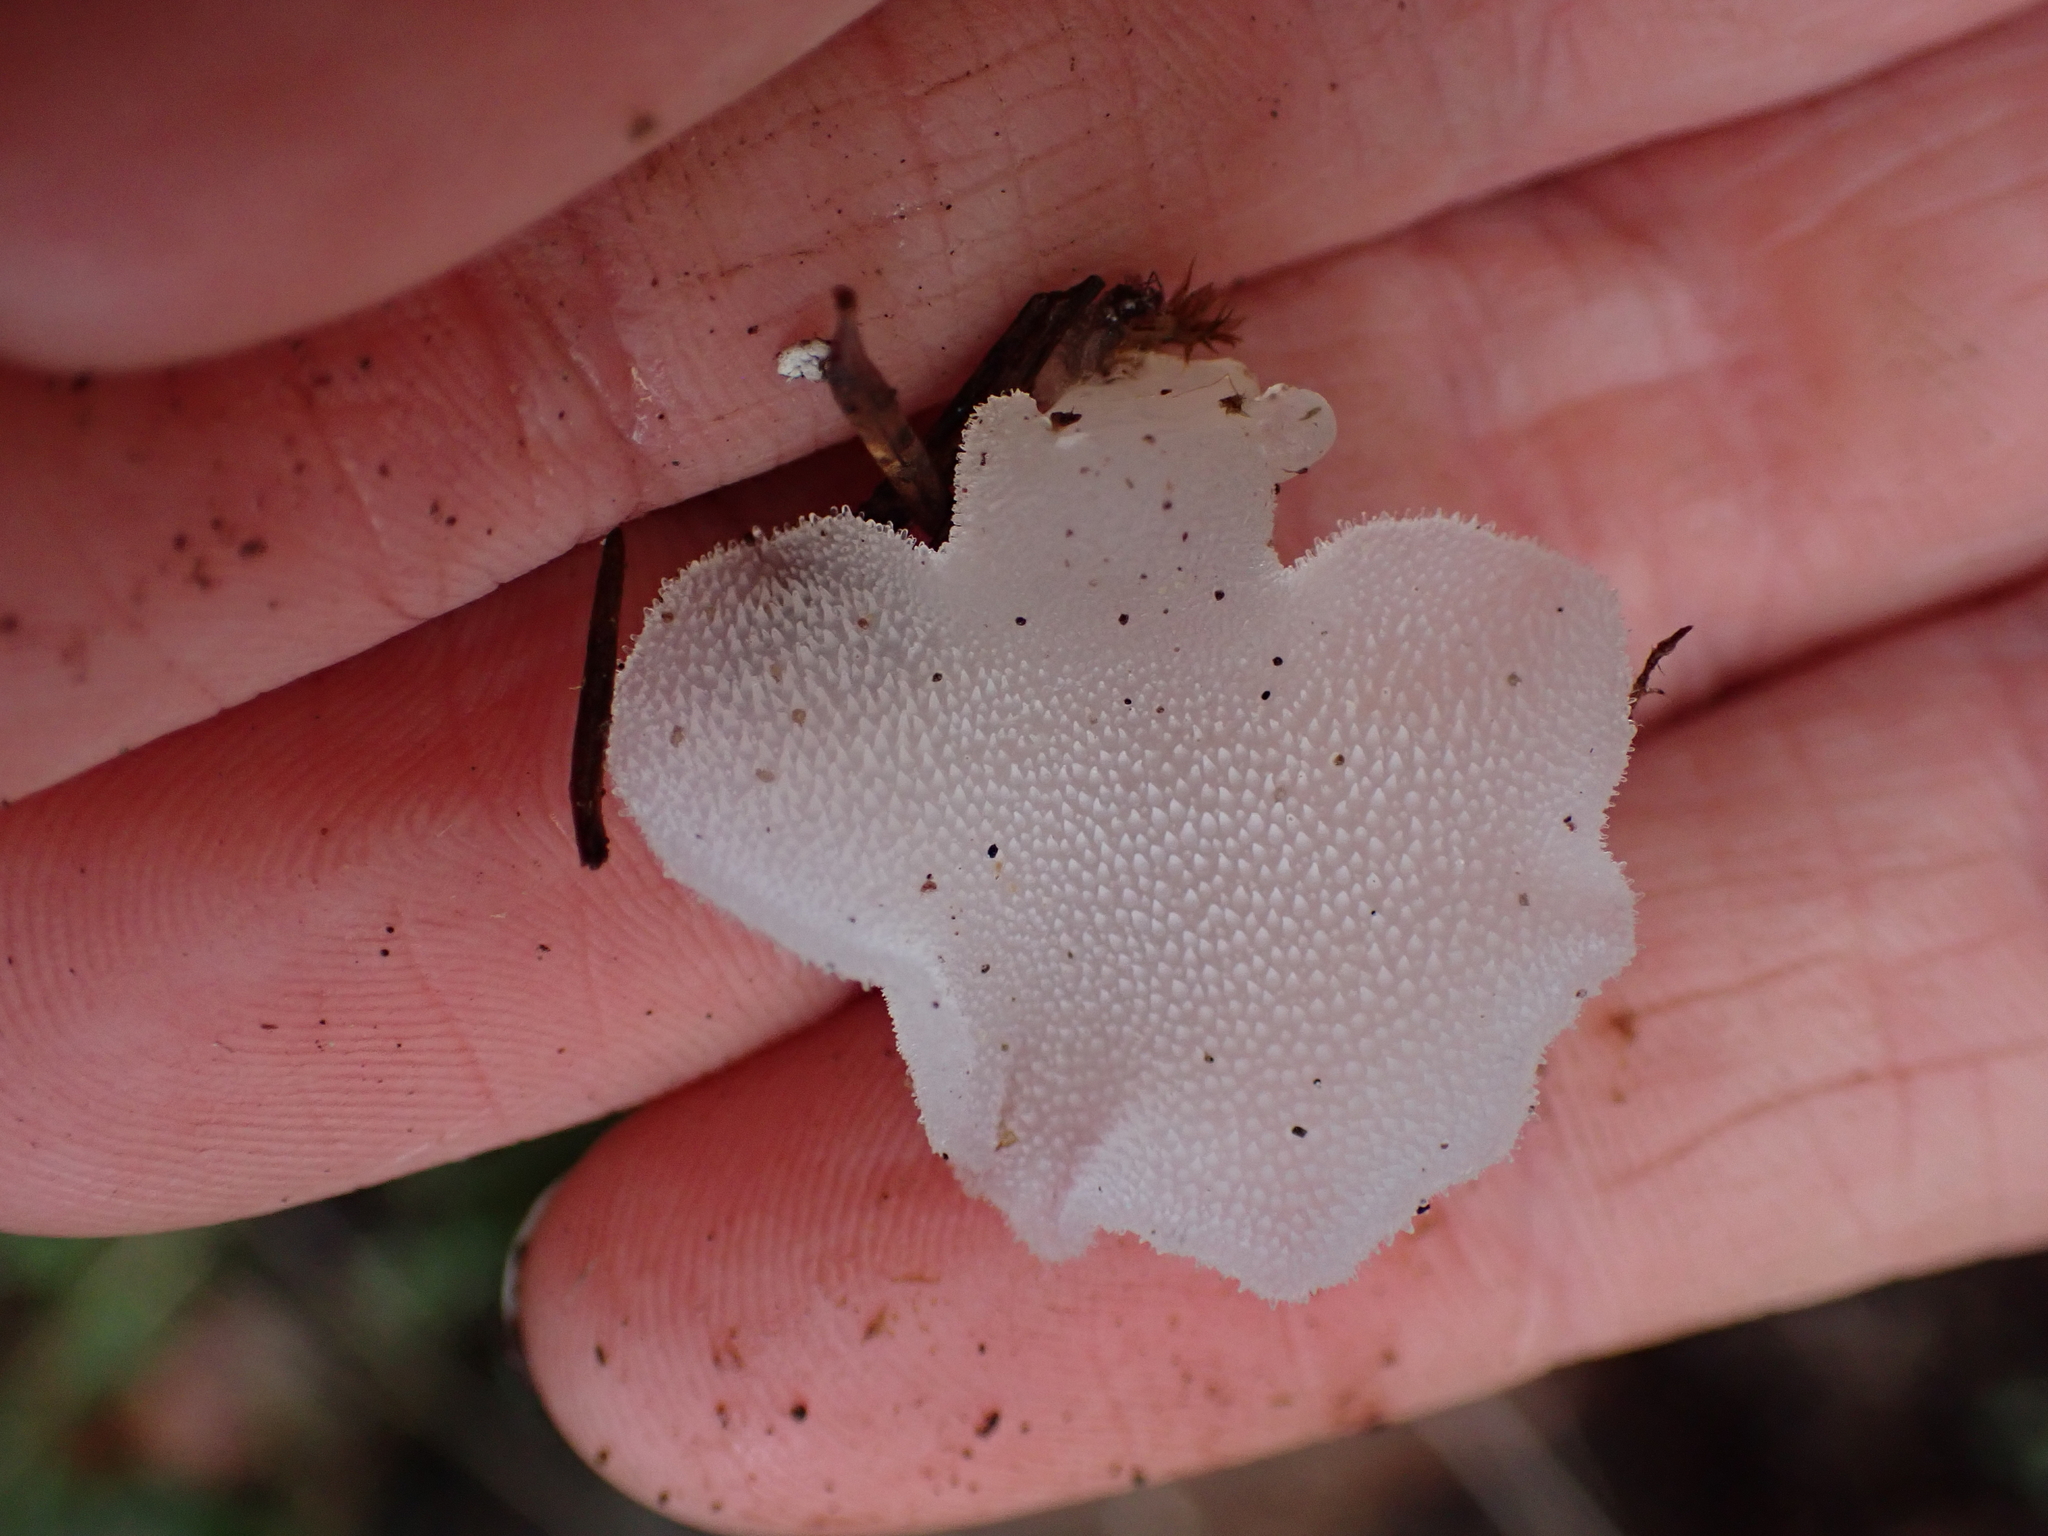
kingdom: Fungi
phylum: Basidiomycota
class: Agaricomycetes
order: Auriculariales
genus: Pseudohydnum
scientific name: Pseudohydnum gelatinosum
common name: Jelly tongue
